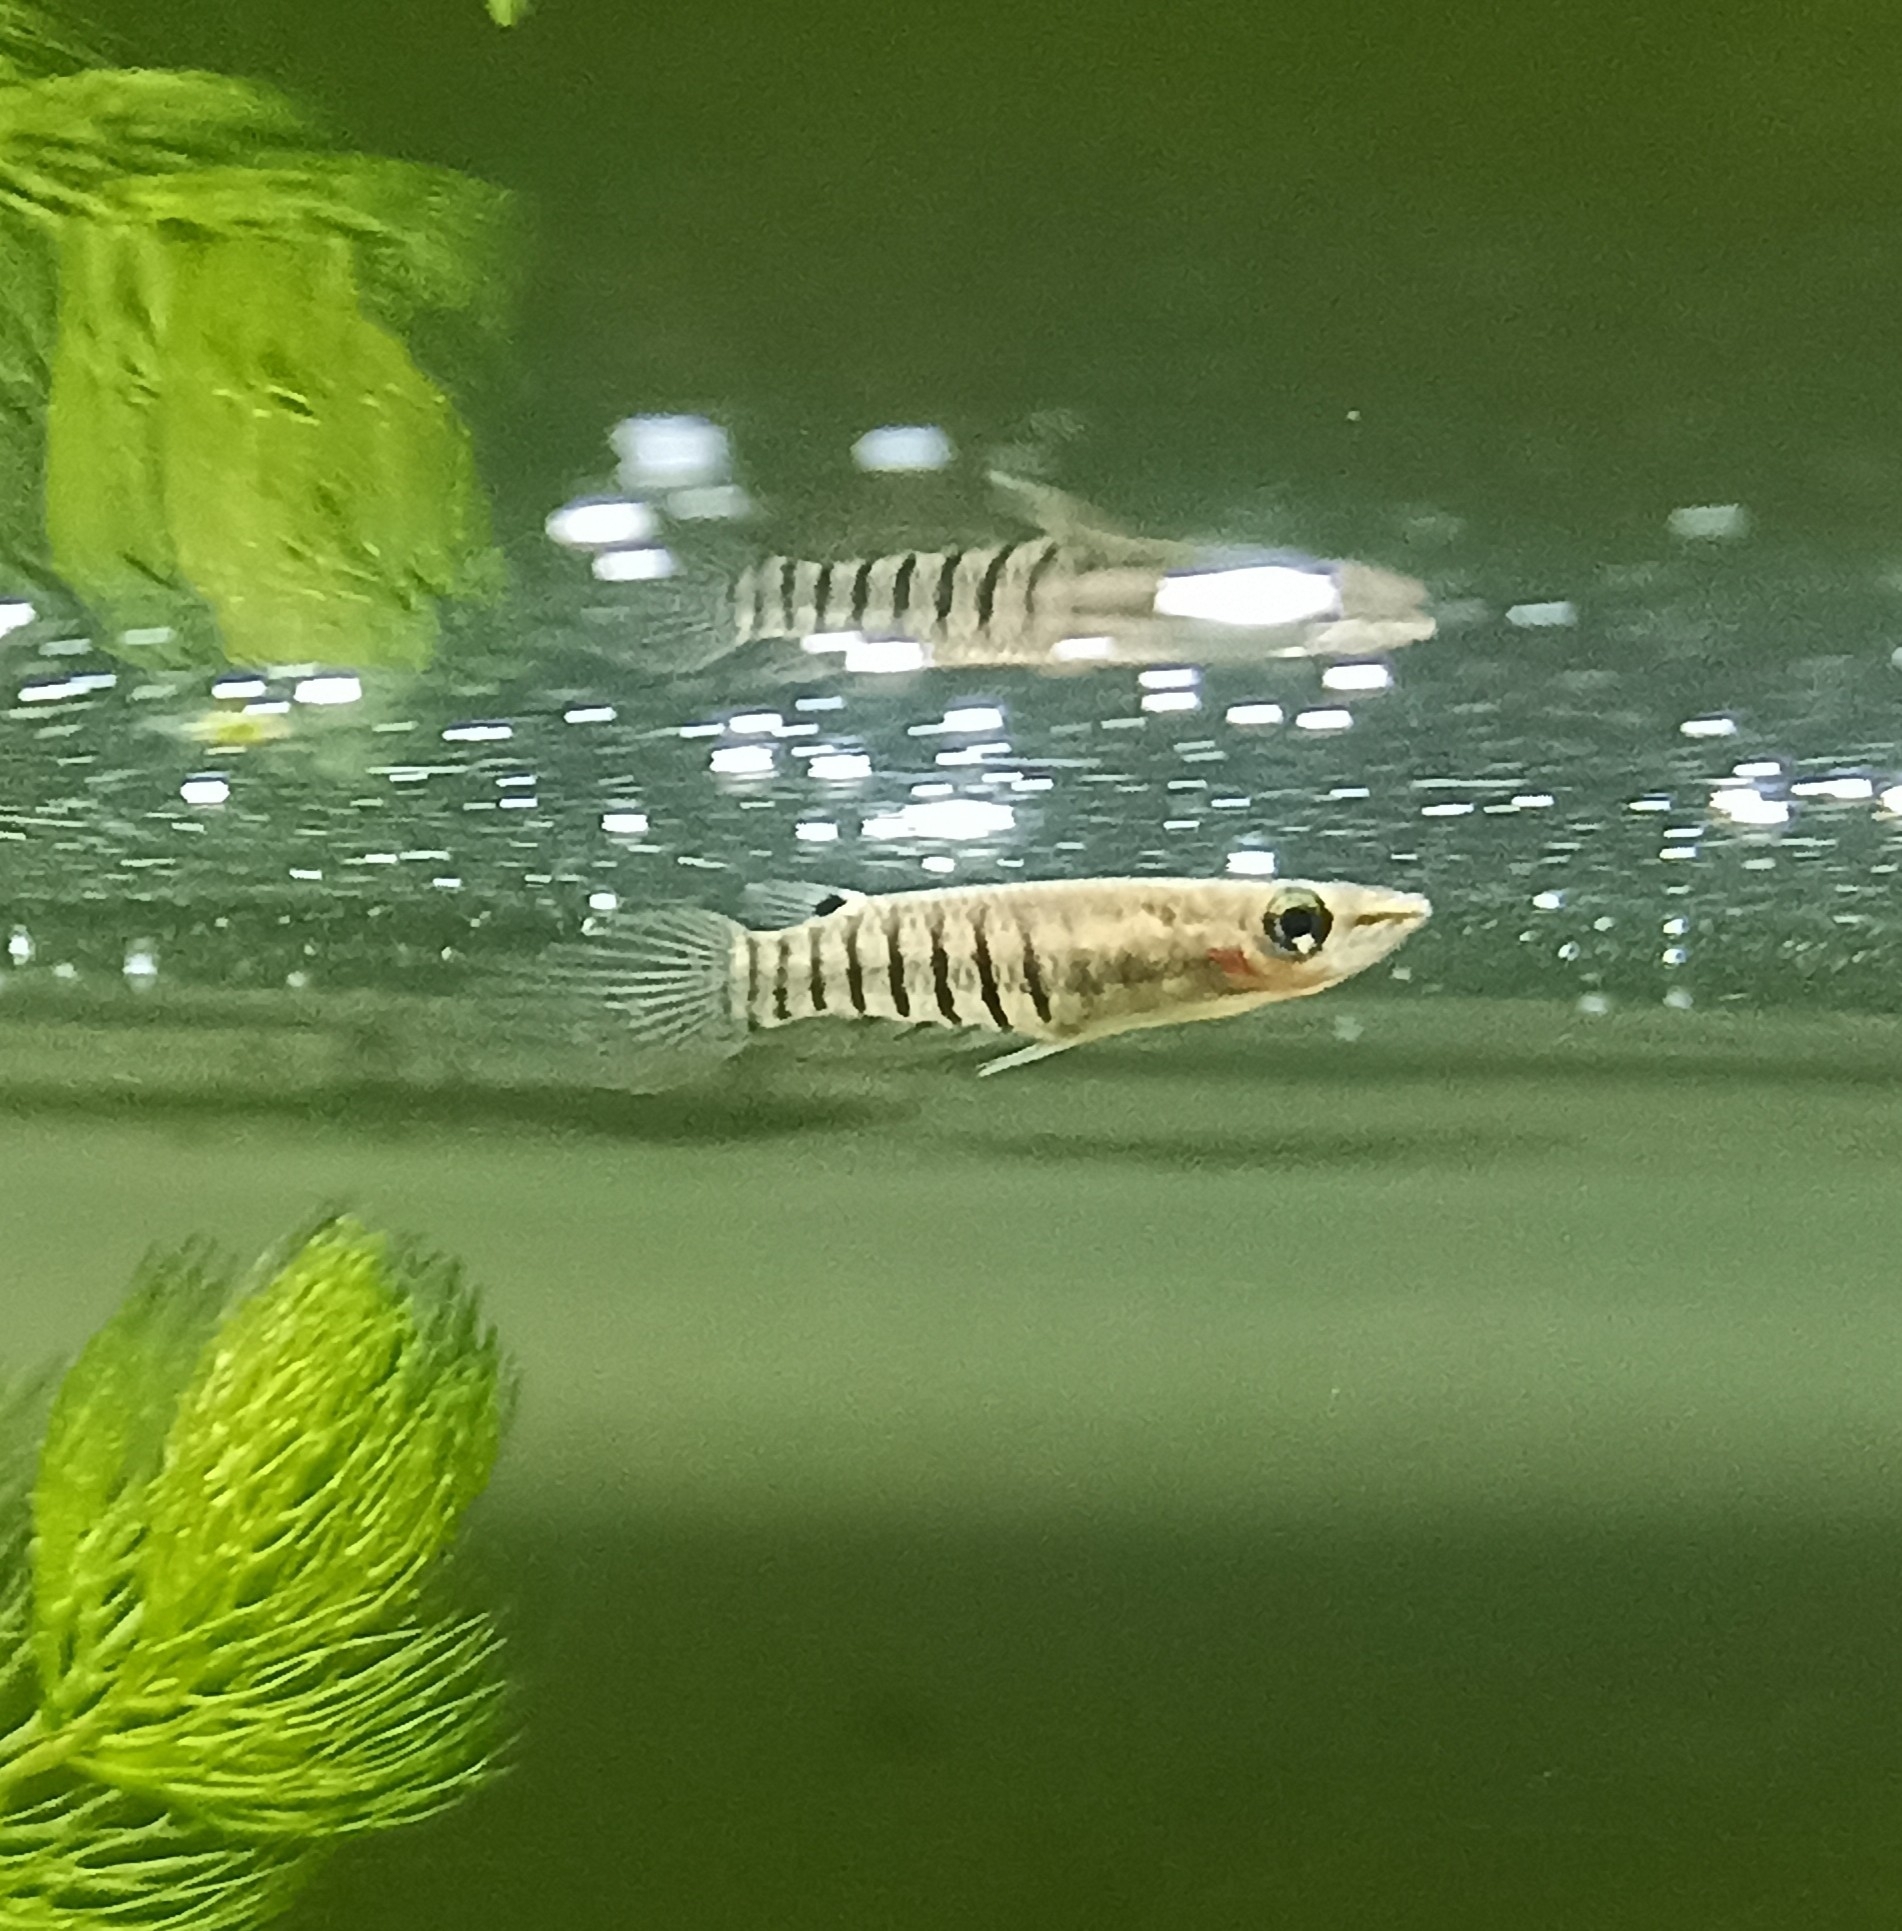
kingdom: Animalia
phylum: Chordata
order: Cyprinodontiformes
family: Aplocheilidae
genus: Aplocheilus
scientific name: Aplocheilus lineatus
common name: Striped panchax
